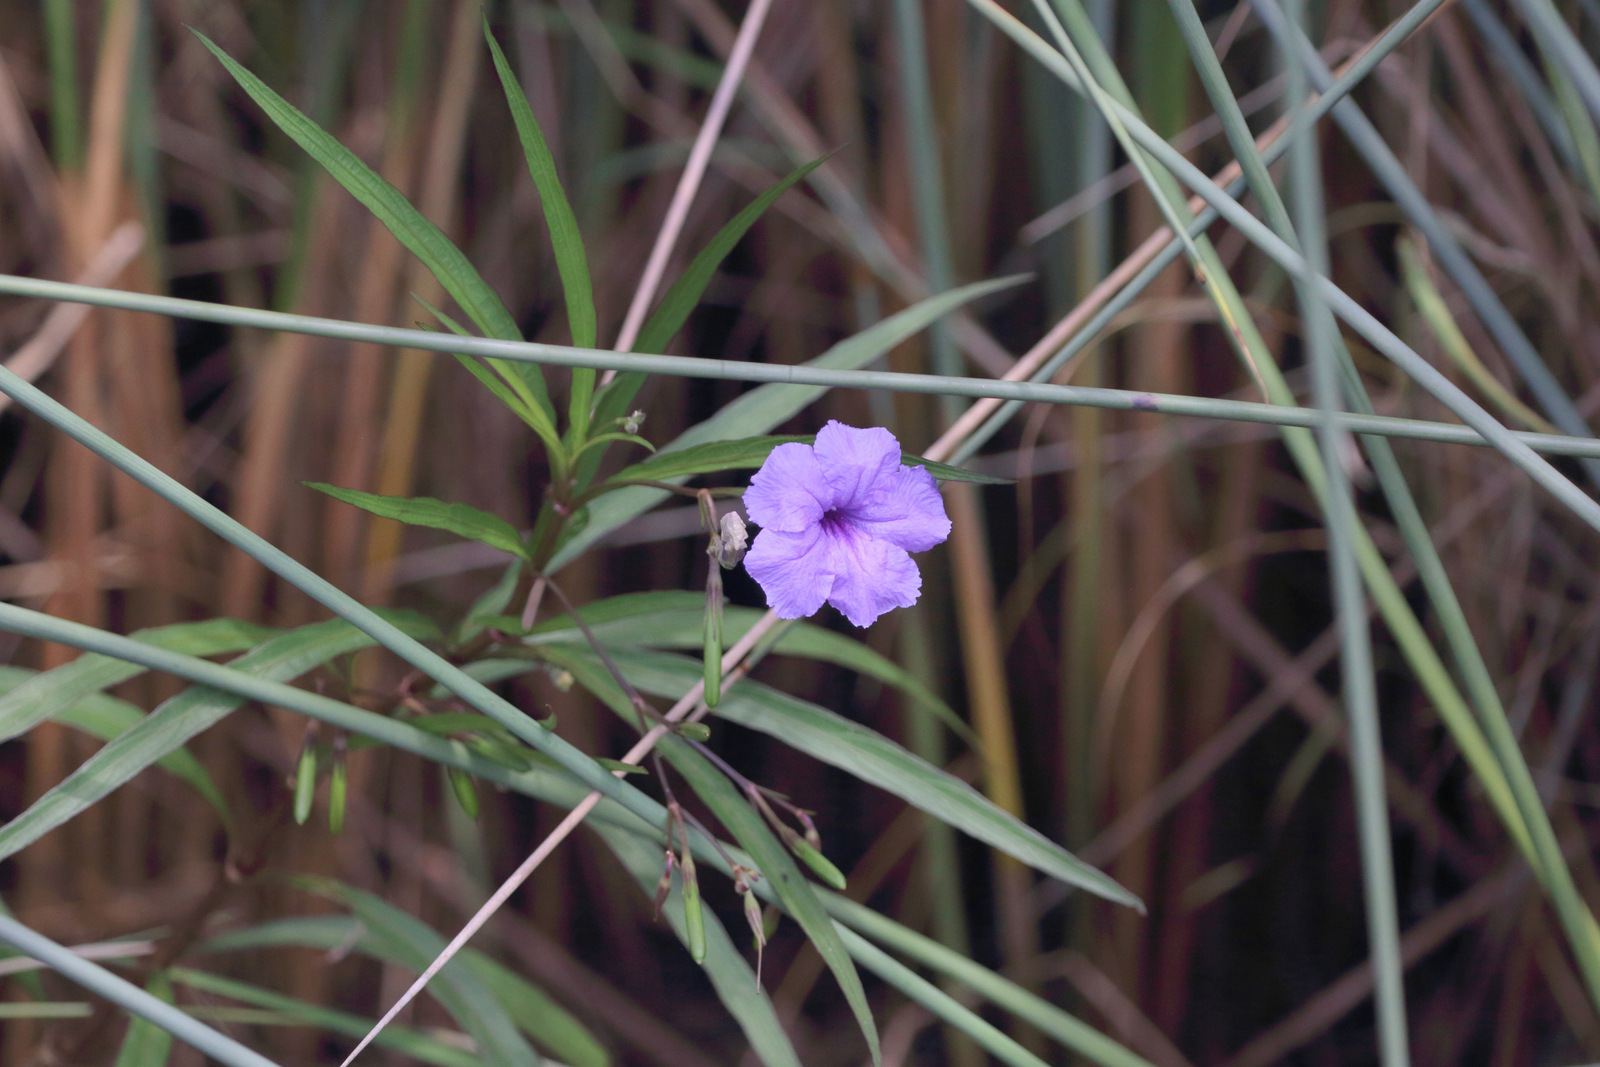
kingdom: Plantae
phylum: Tracheophyta
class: Magnoliopsida
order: Lamiales
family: Acanthaceae
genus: Ruellia
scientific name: Ruellia simplex
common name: Softseed wild petunia
